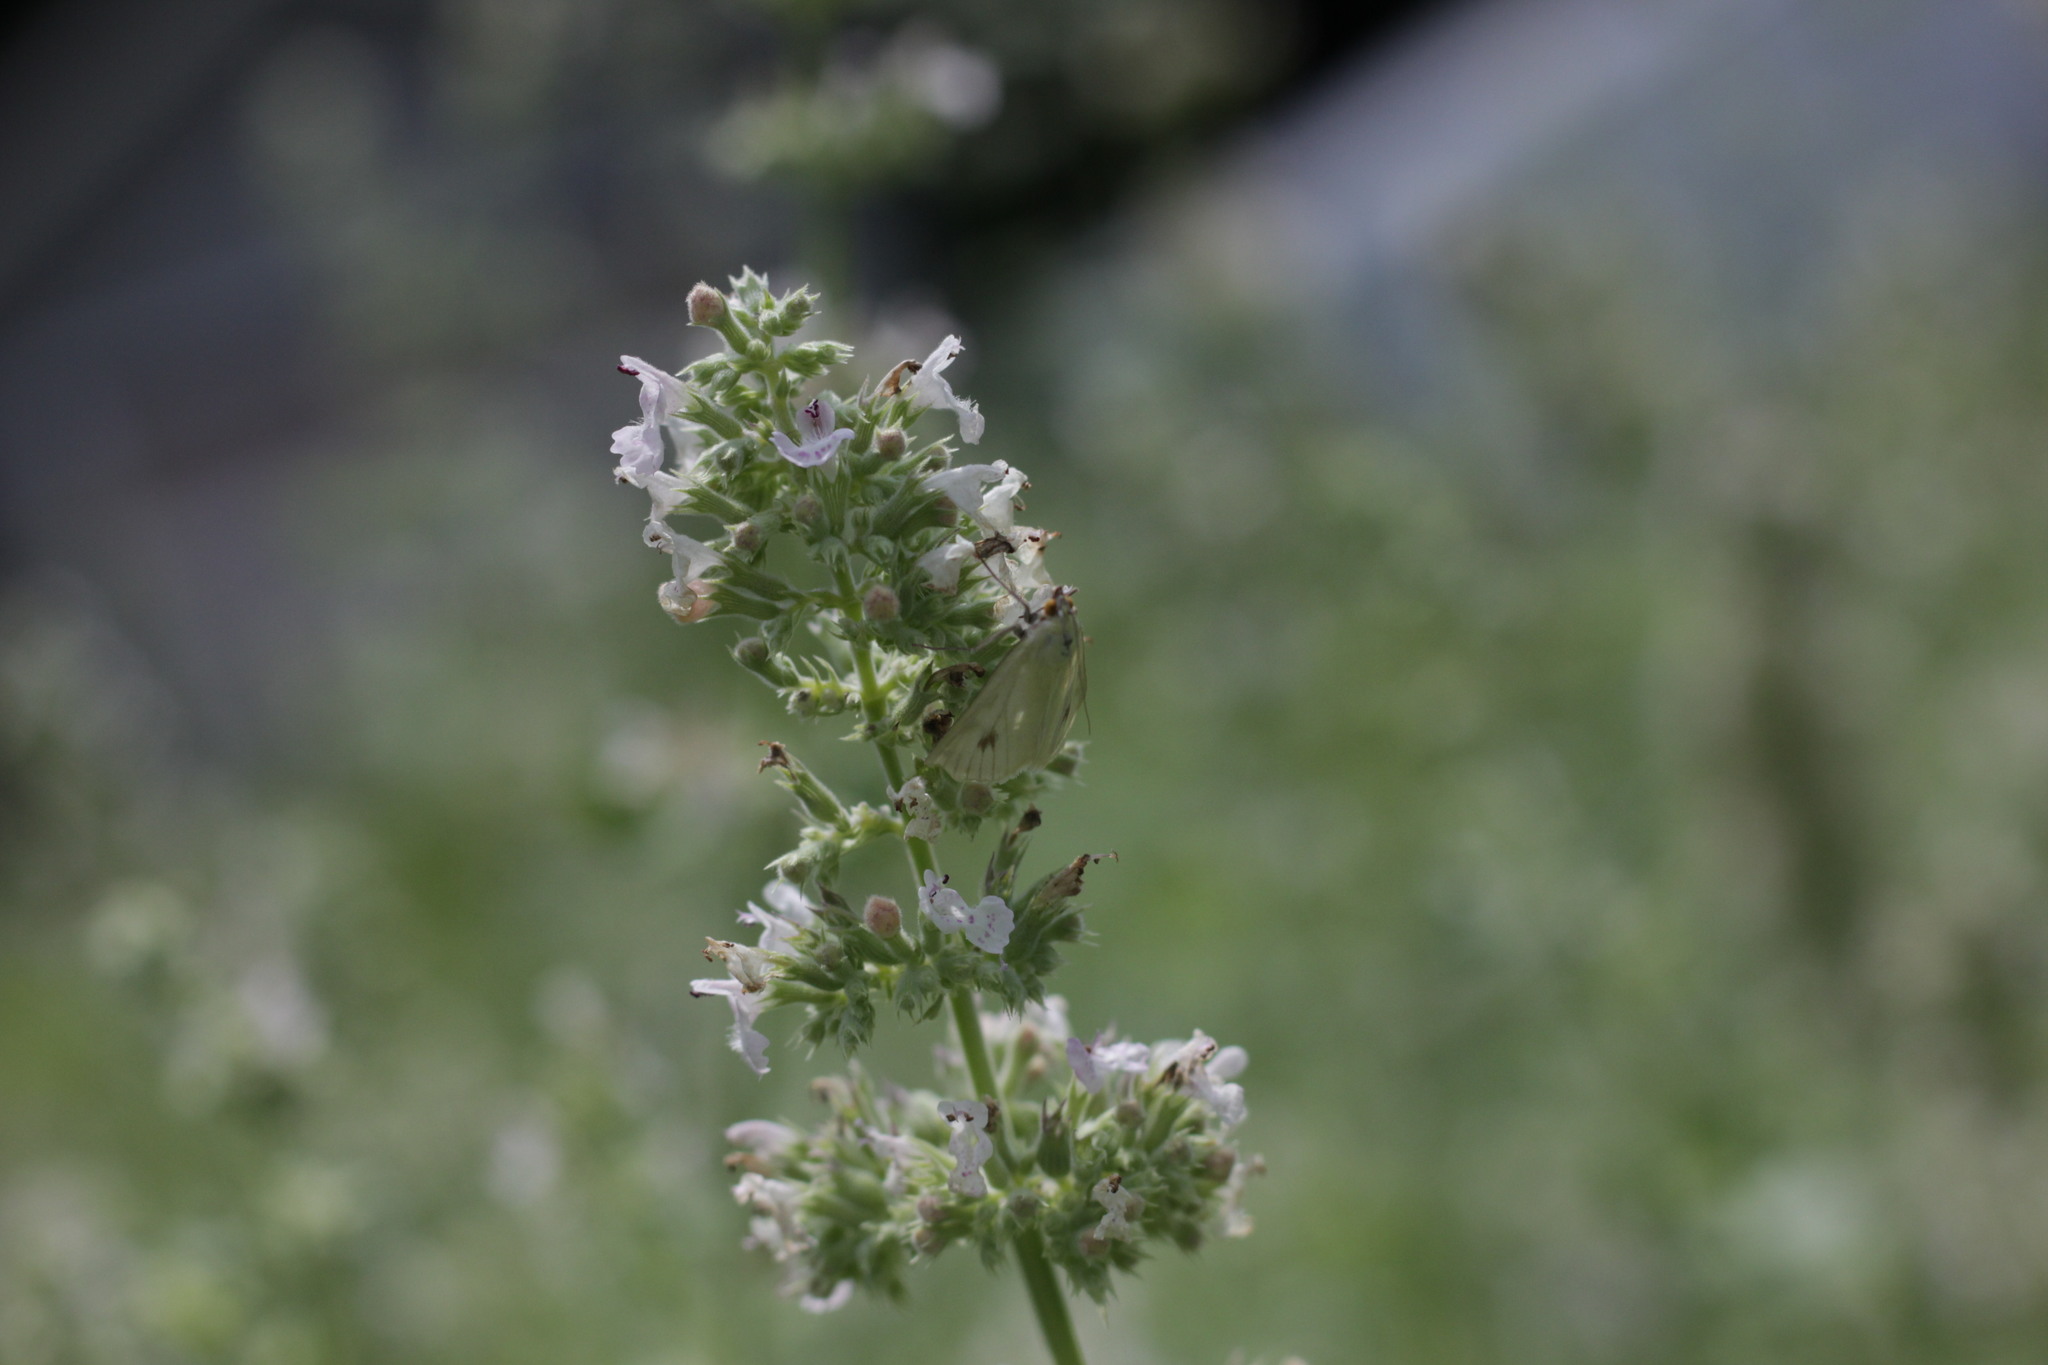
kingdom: Animalia
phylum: Arthropoda
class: Insecta
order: Lepidoptera
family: Crambidae
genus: Sitochroa
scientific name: Sitochroa palealis
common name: Greenish-yellow sitochroa moth
